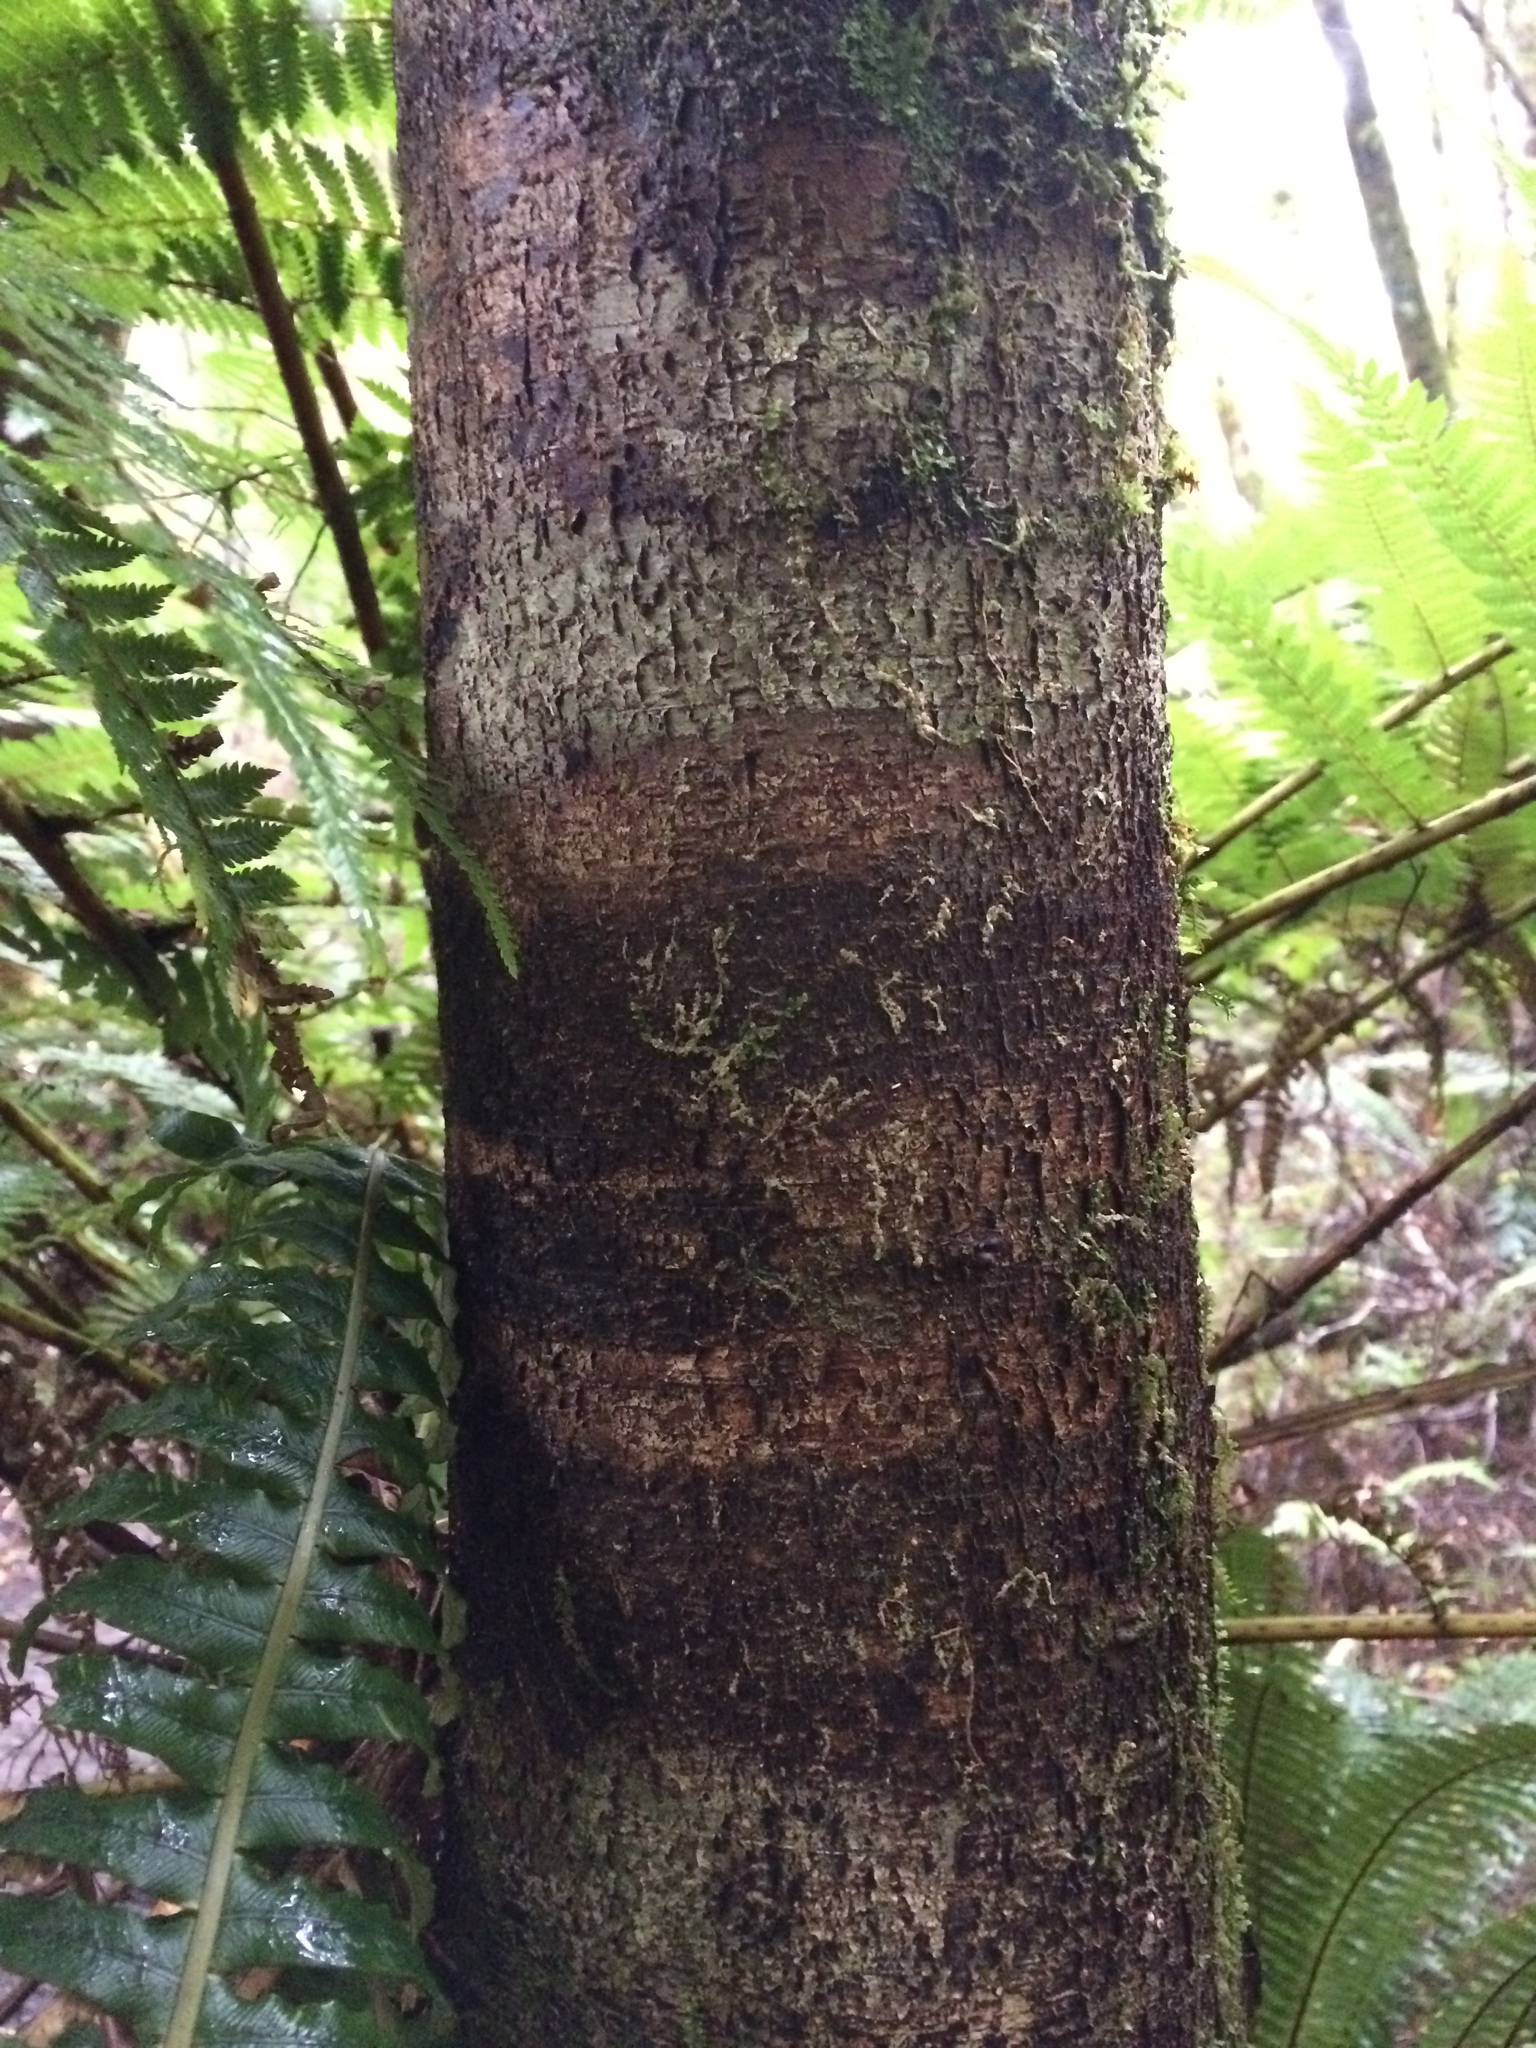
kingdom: Plantae
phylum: Tracheophyta
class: Pinopsida
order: Pinales
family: Podocarpaceae
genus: Dacrycarpus
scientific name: Dacrycarpus dacrydioides
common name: White pine
